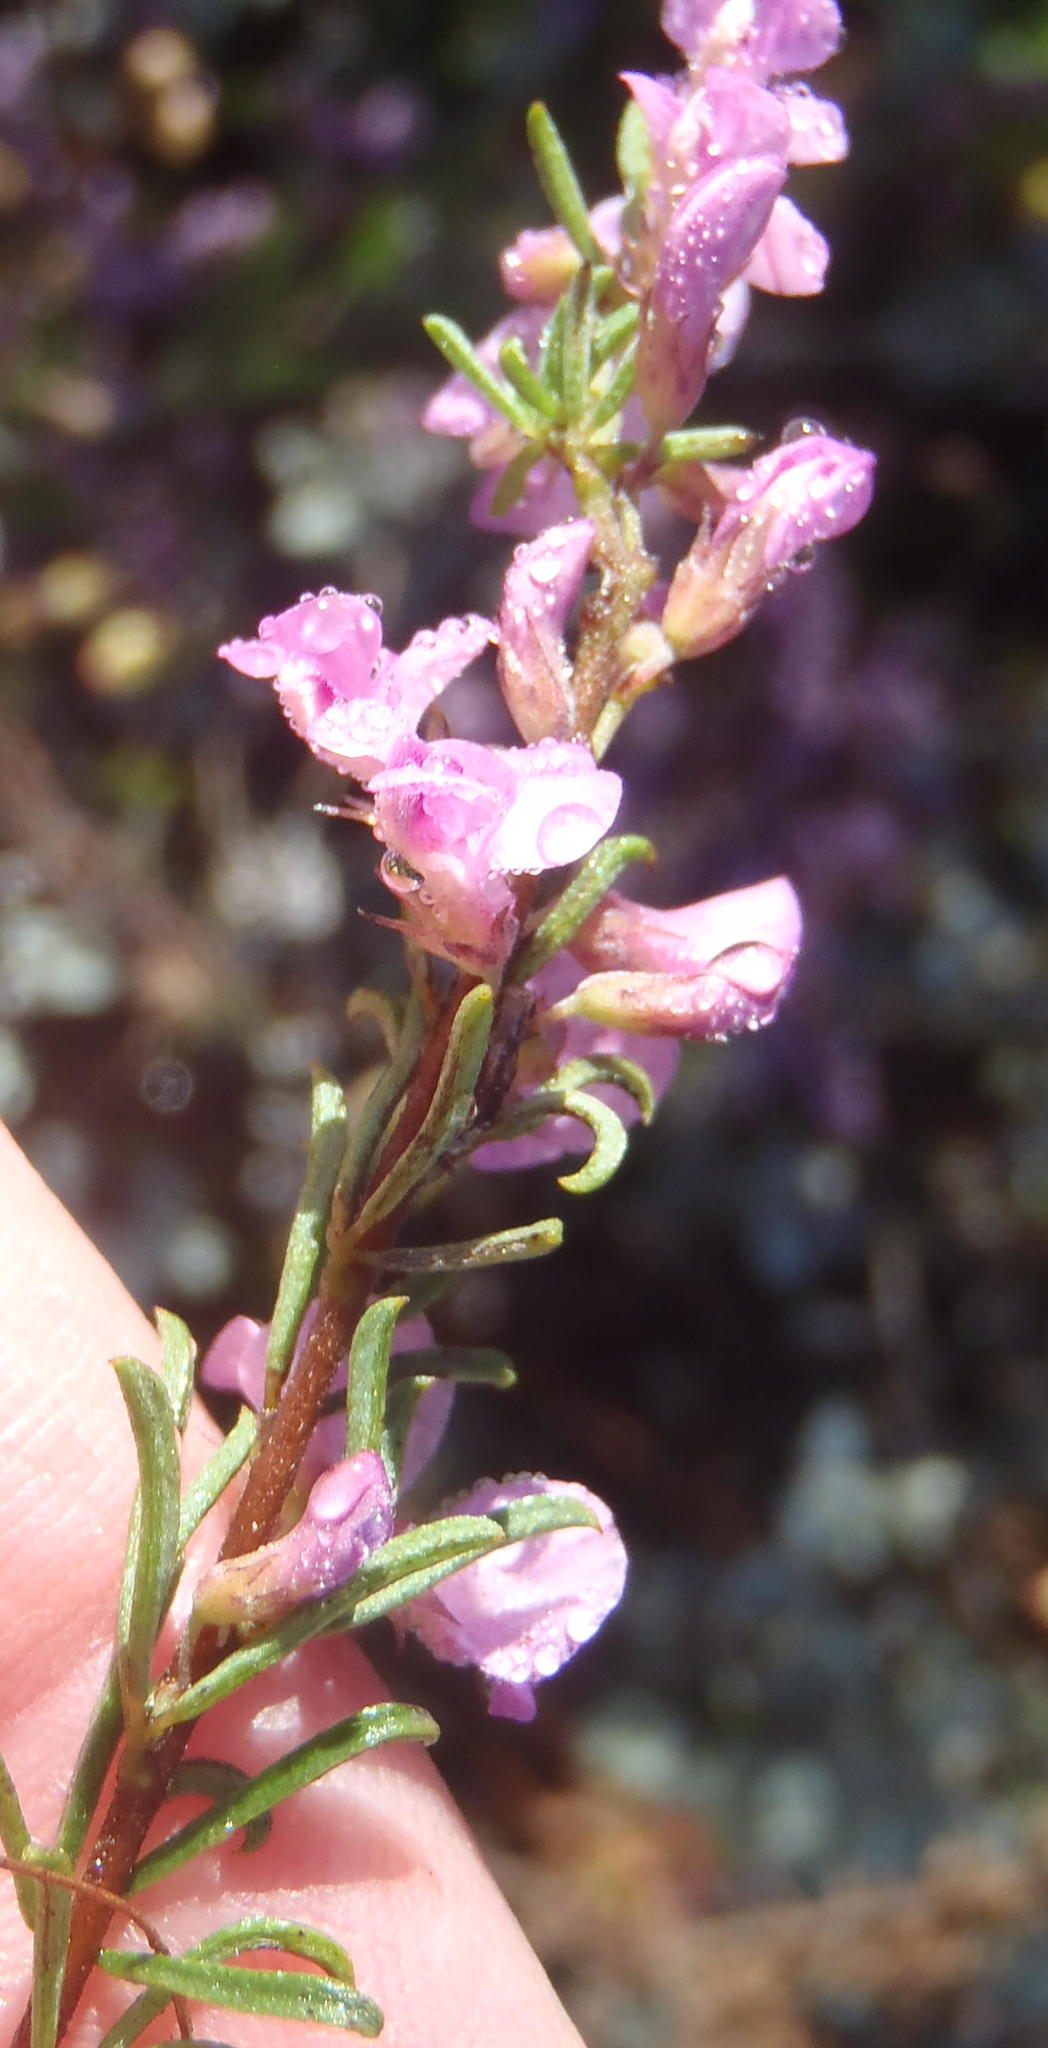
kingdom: Plantae
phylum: Tracheophyta
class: Magnoliopsida
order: Fabales
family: Fabaceae
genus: Indigofera
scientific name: Indigofera pappei
